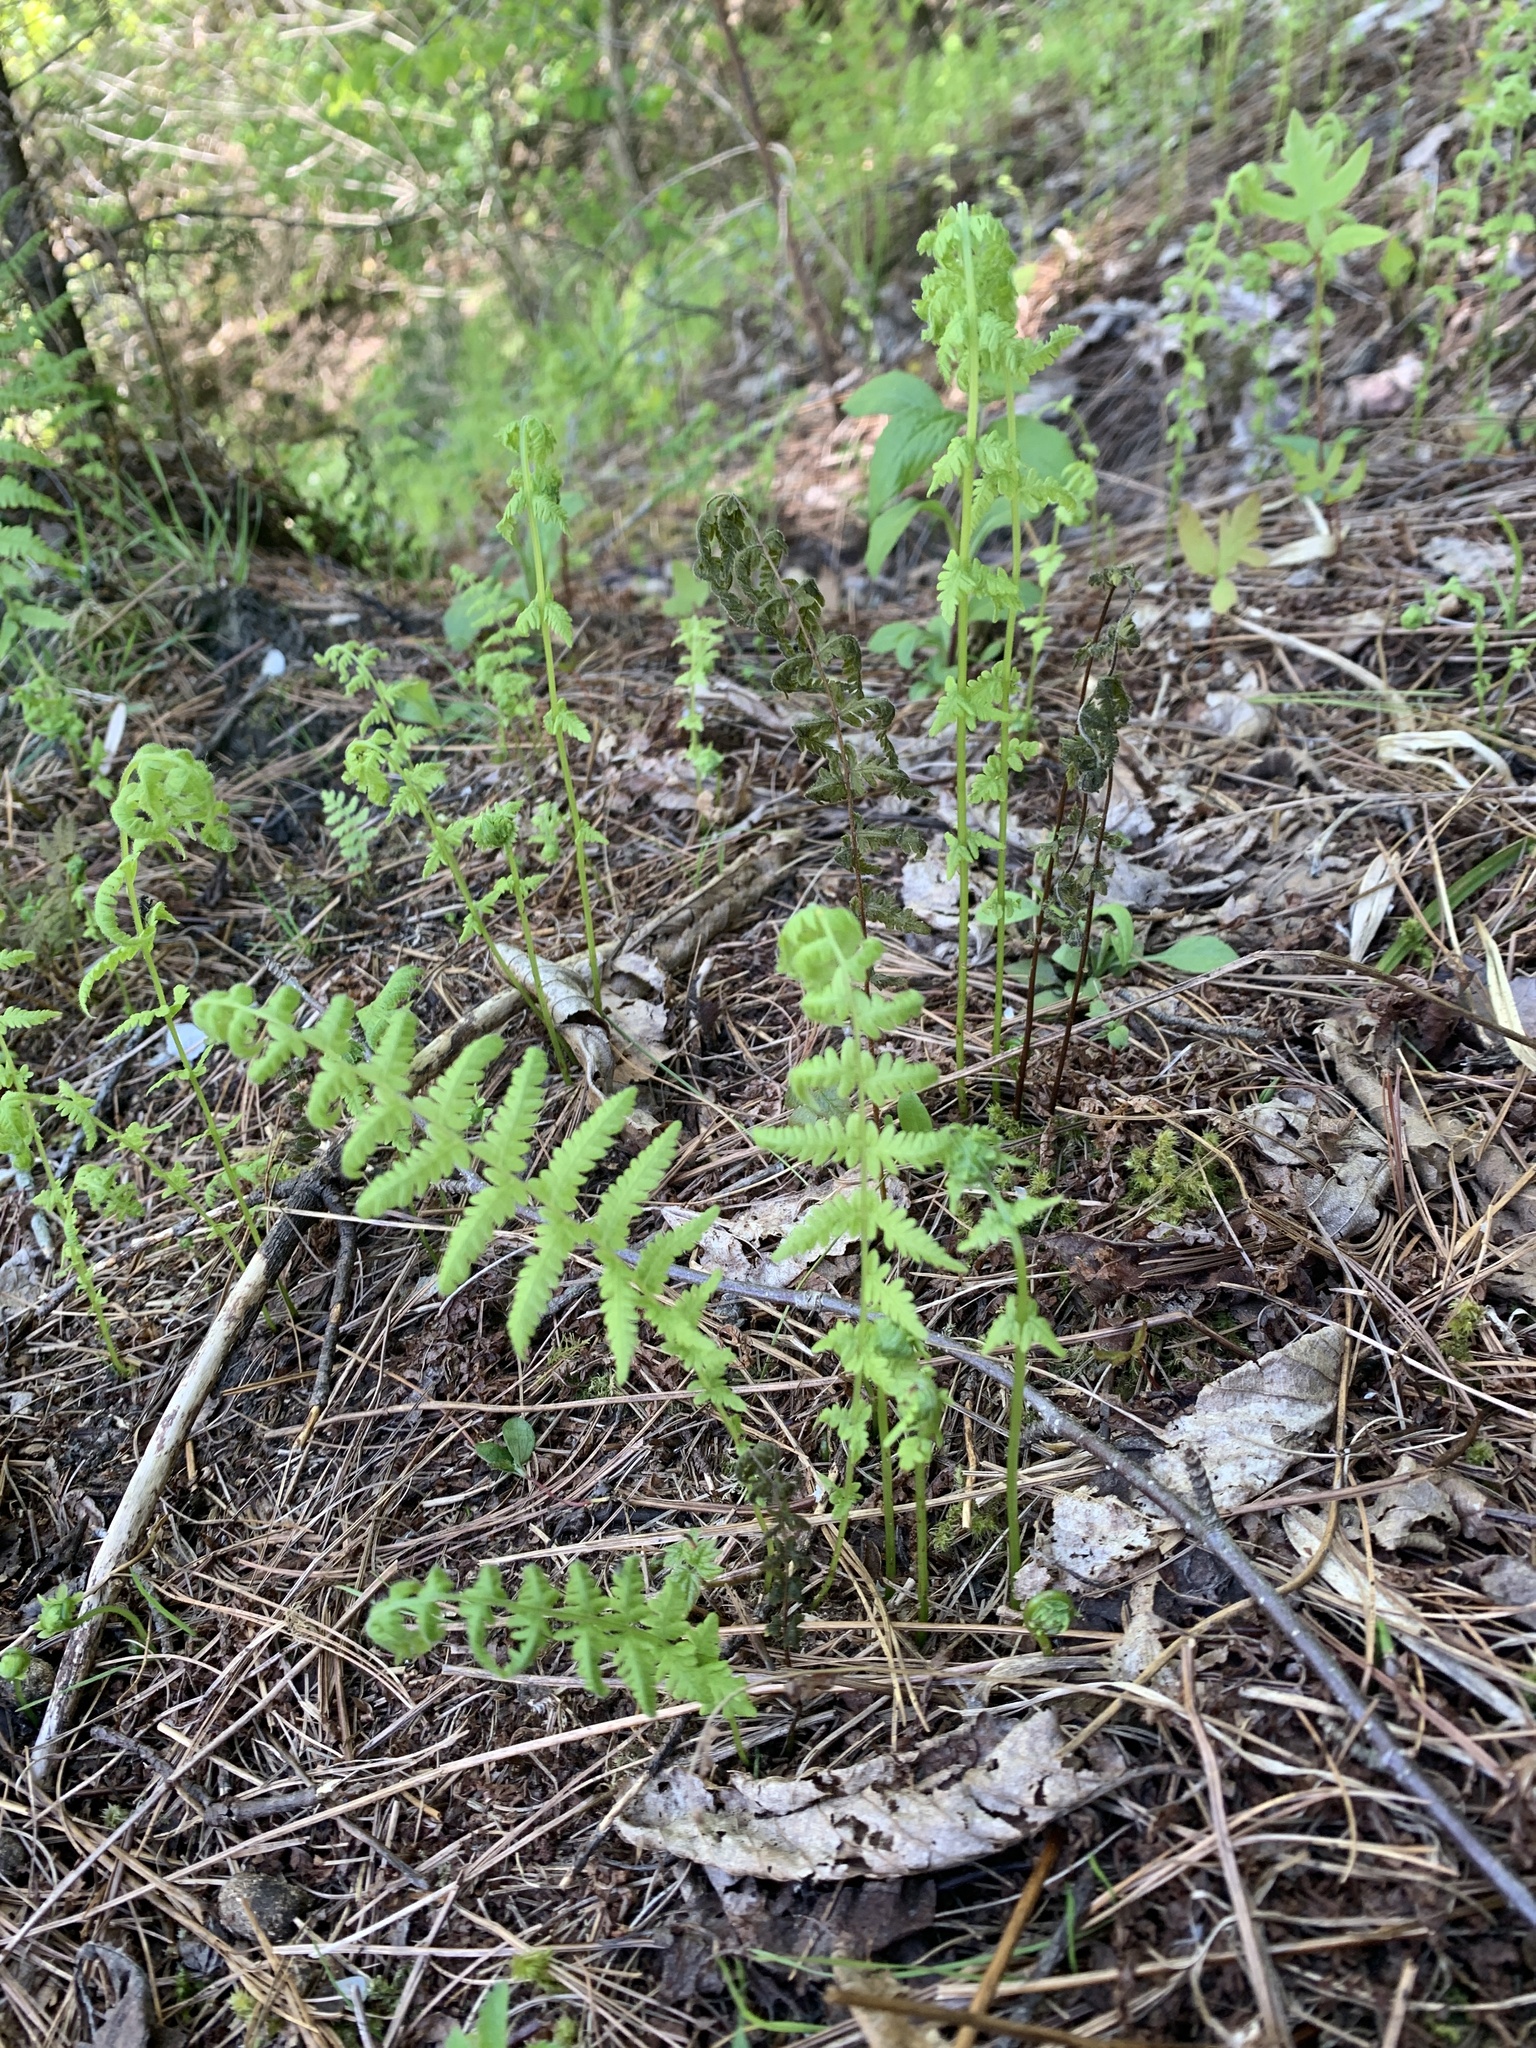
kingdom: Plantae
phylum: Tracheophyta
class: Polypodiopsida
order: Polypodiales
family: Thelypteridaceae
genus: Amauropelta
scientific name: Amauropelta noveboracensis
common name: New york fern
